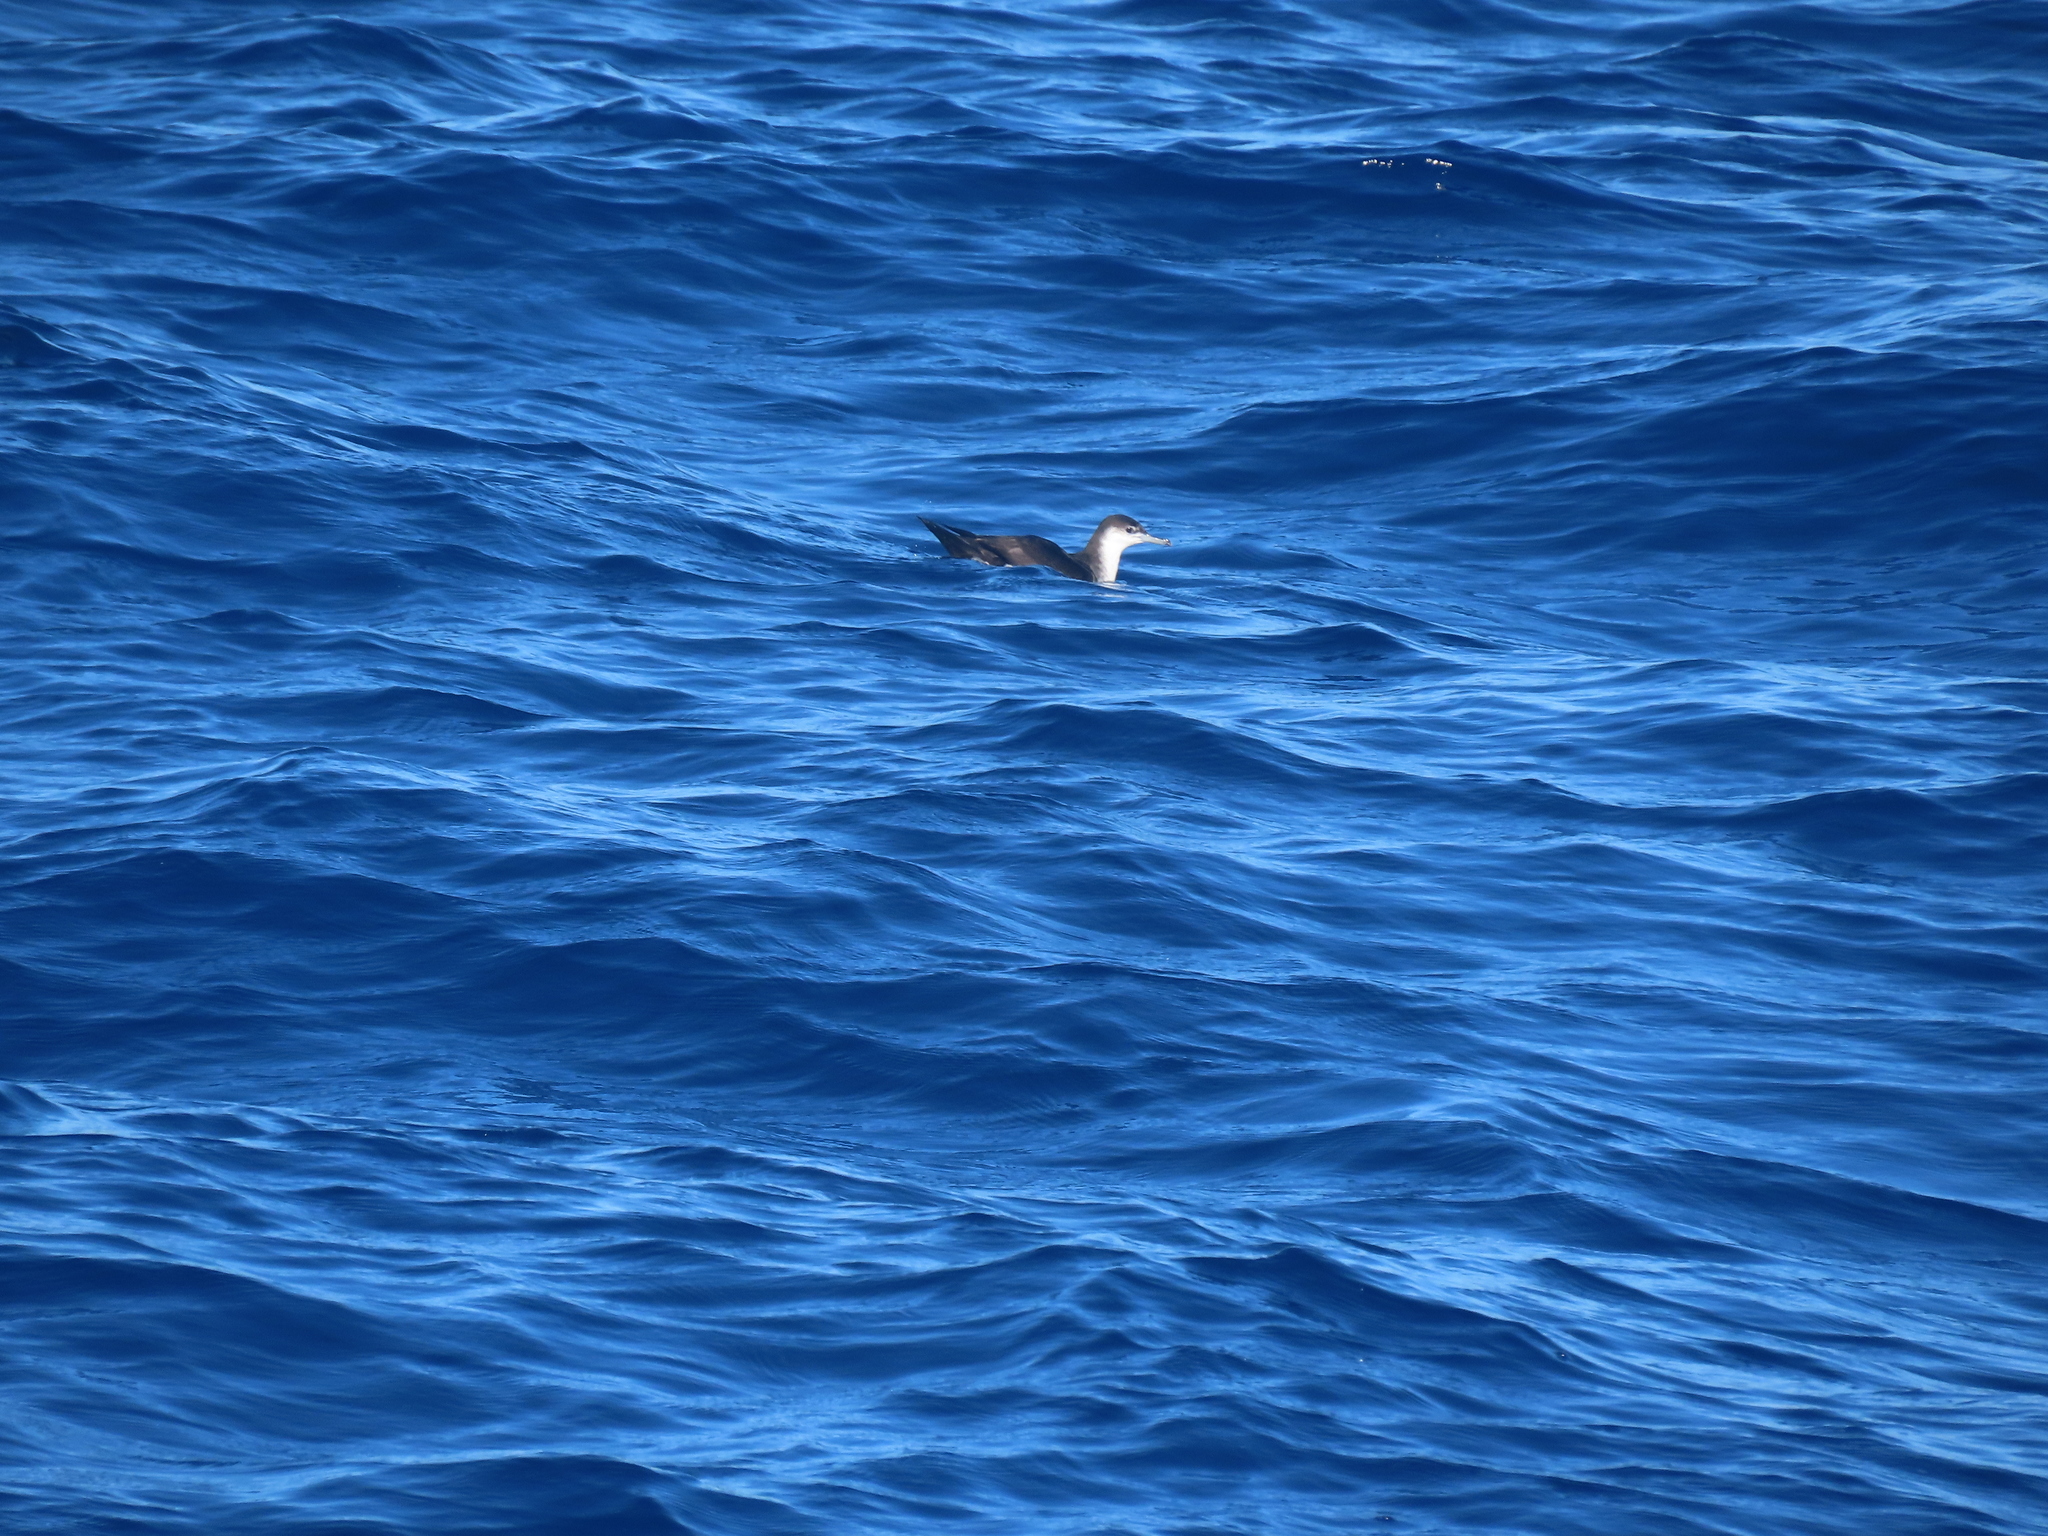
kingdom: Animalia
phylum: Chordata
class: Aves
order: Procellariiformes
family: Procellariidae
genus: Puffinus
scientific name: Puffinus lherminieri
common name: Audubon's shearwater
